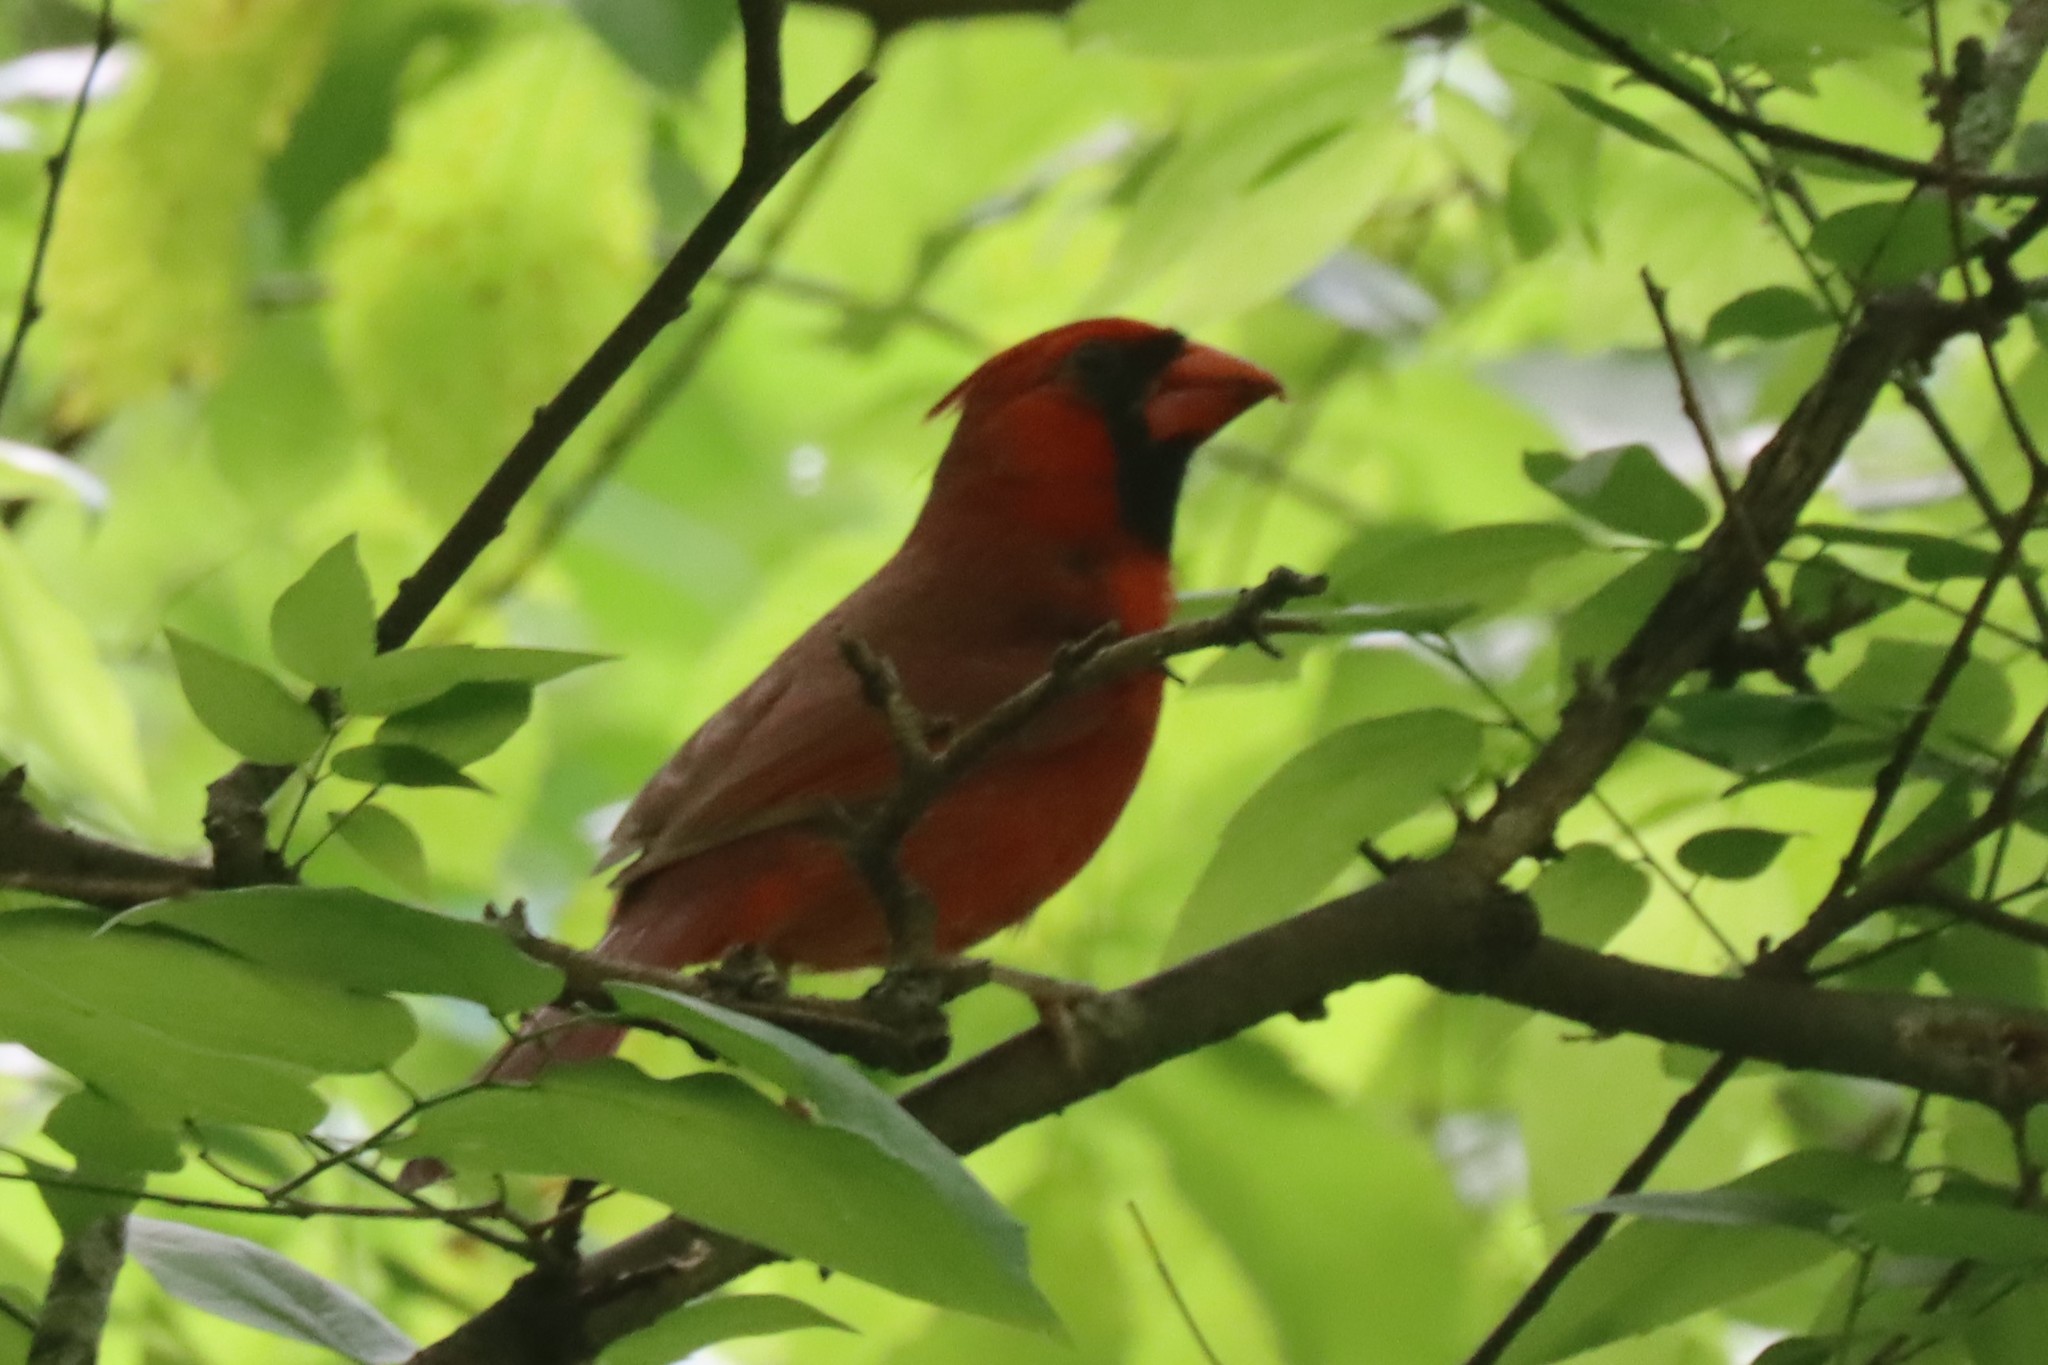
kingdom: Animalia
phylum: Chordata
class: Aves
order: Passeriformes
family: Cardinalidae
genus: Cardinalis
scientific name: Cardinalis cardinalis
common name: Northern cardinal
